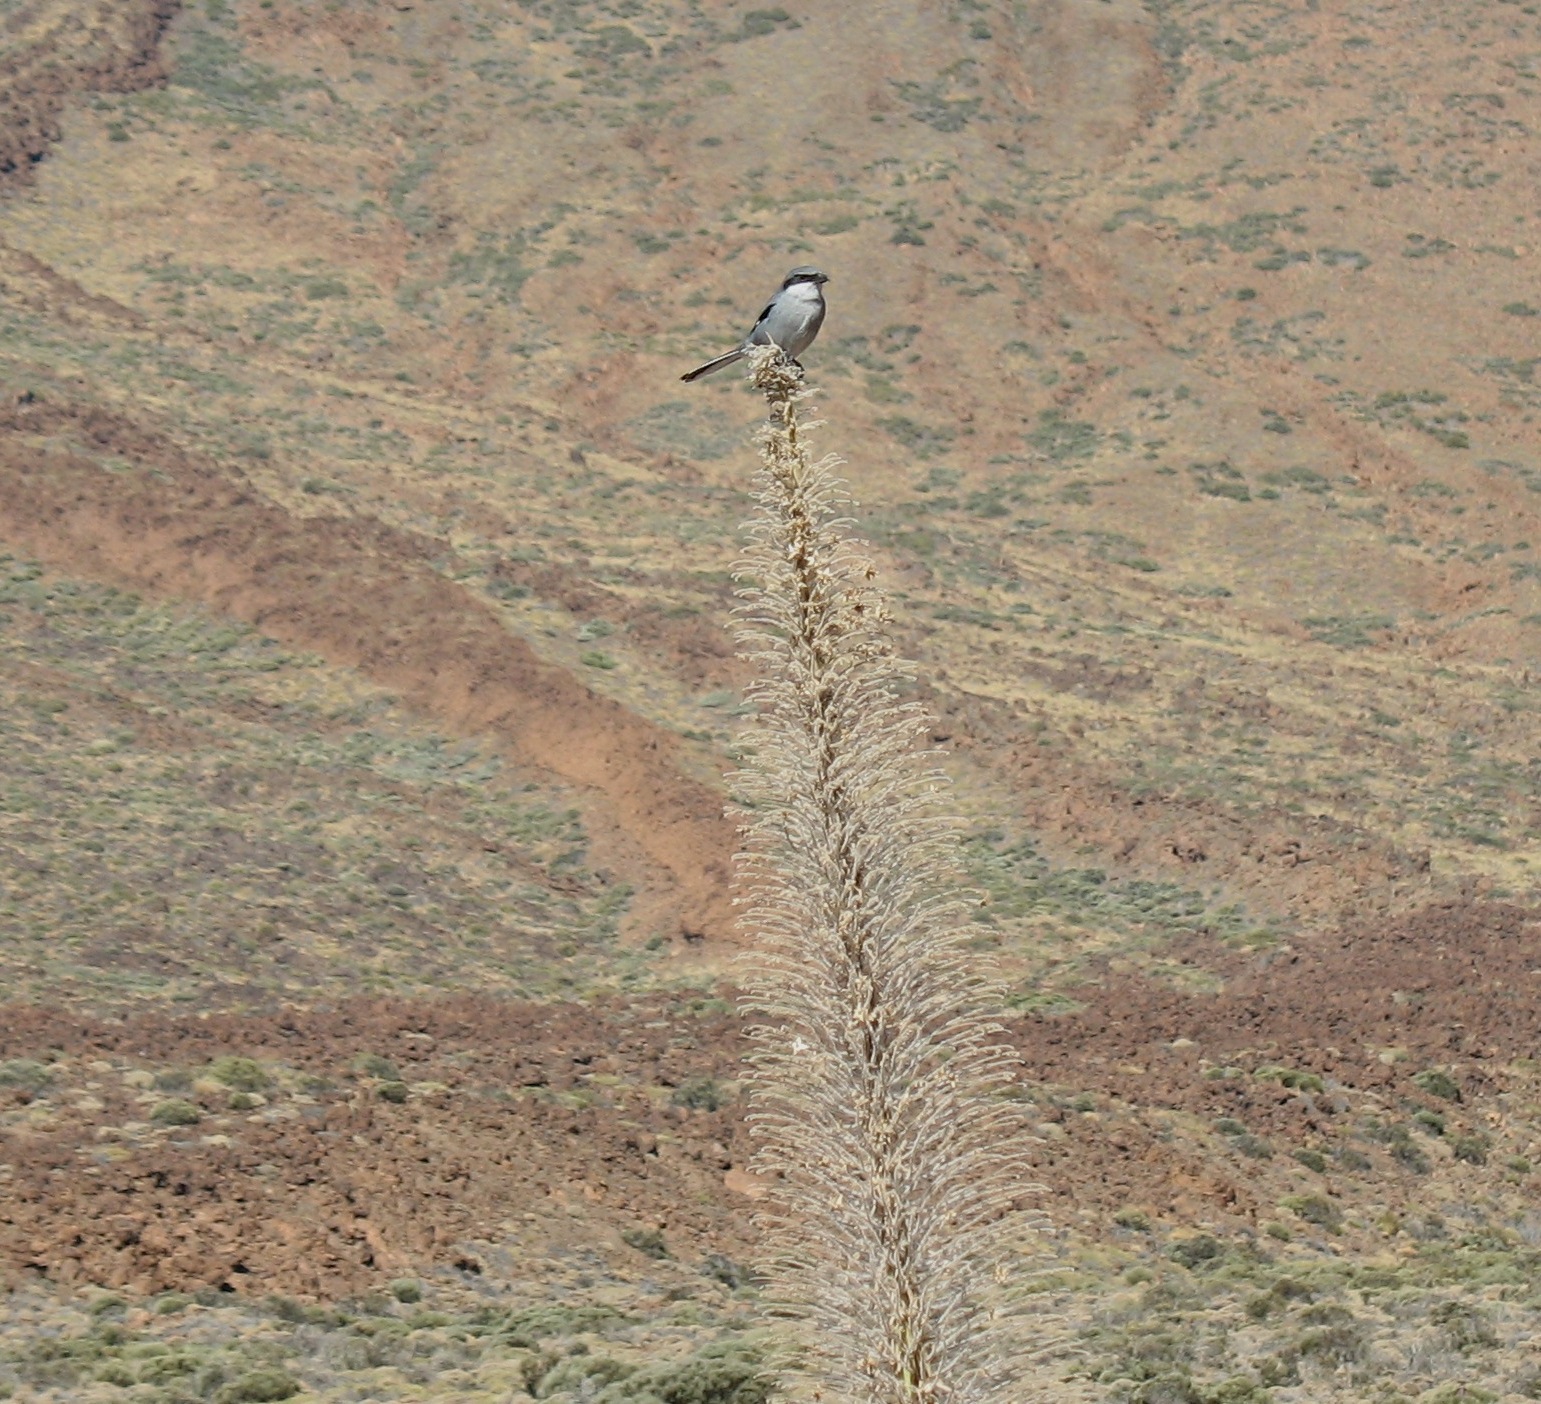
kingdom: Animalia
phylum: Chordata
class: Aves
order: Passeriformes
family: Laniidae
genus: Lanius
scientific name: Lanius excubitor
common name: Great grey shrike
